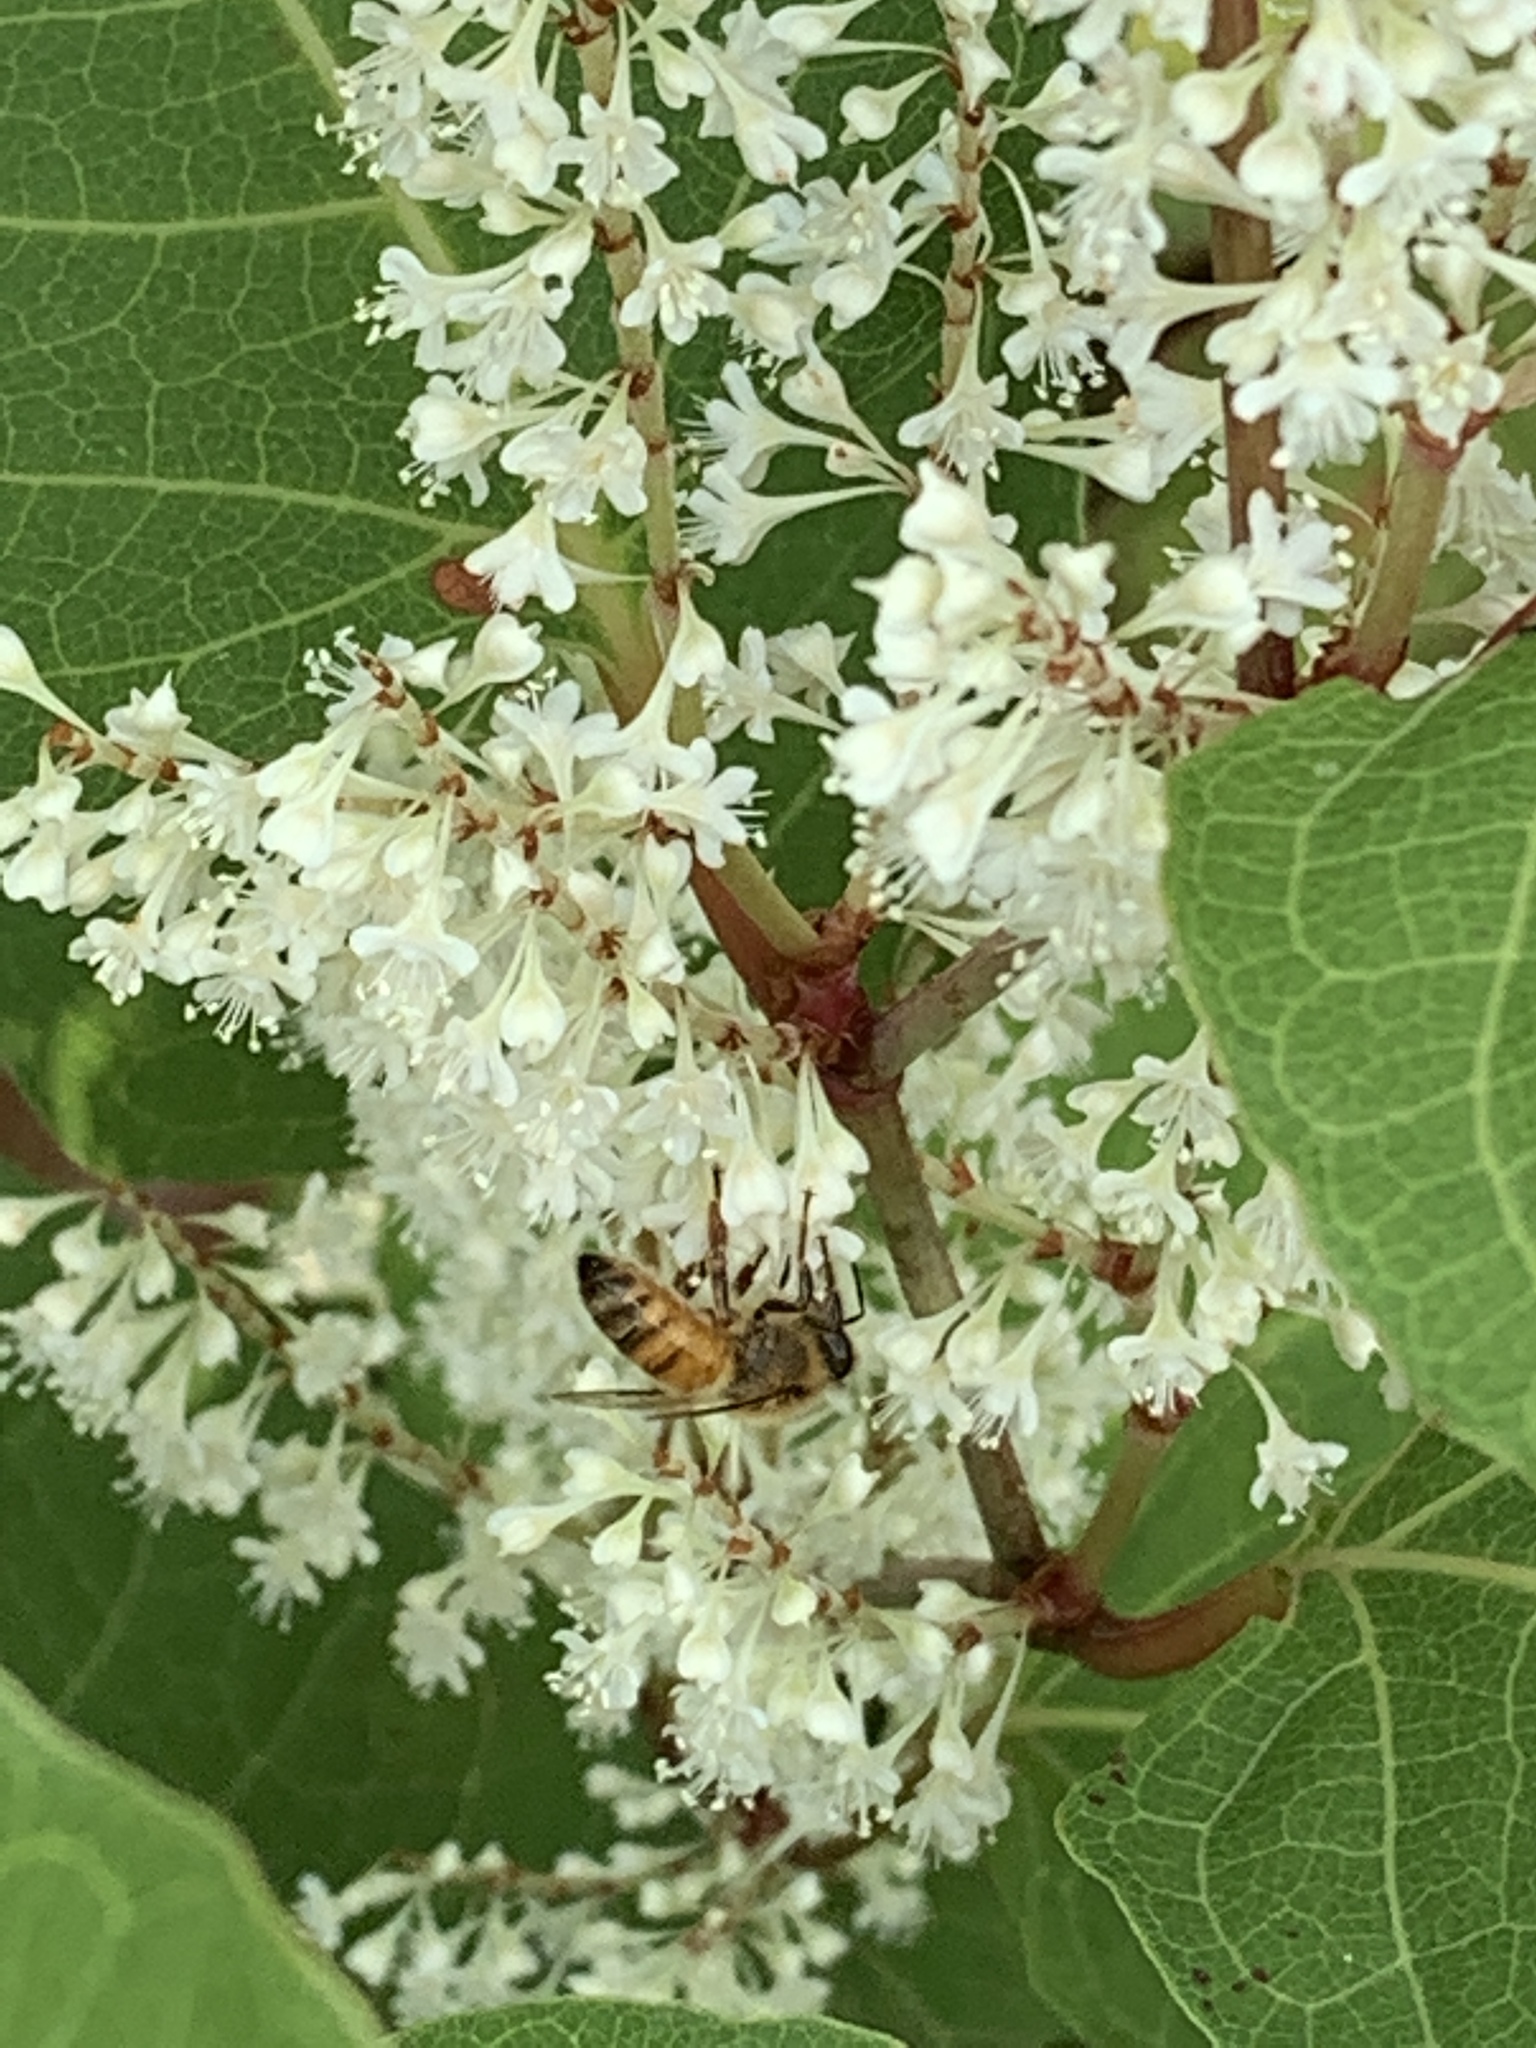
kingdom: Animalia
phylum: Arthropoda
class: Insecta
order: Hymenoptera
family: Apidae
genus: Apis
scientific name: Apis mellifera
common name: Honey bee
